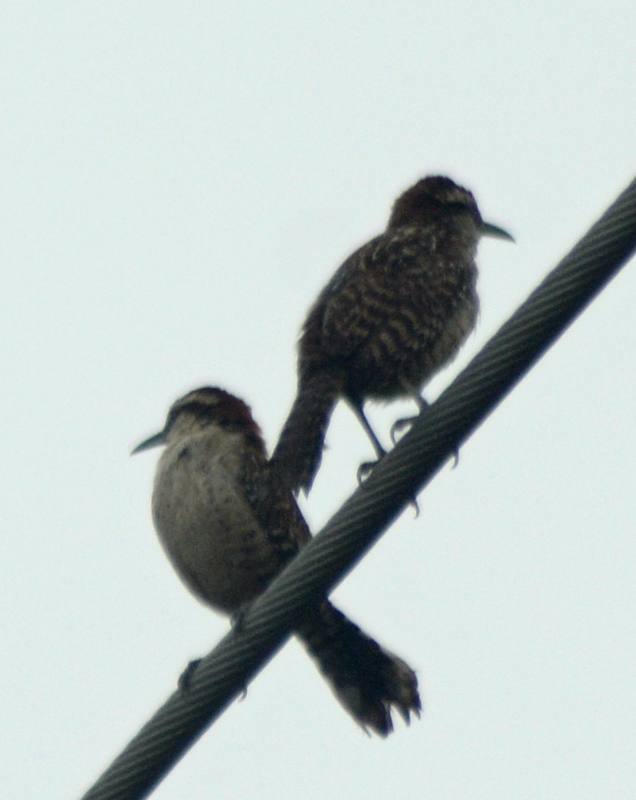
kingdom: Animalia
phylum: Chordata
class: Aves
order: Passeriformes
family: Troglodytidae
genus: Campylorhynchus
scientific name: Campylorhynchus rufinucha
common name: Rufous-naped wren
